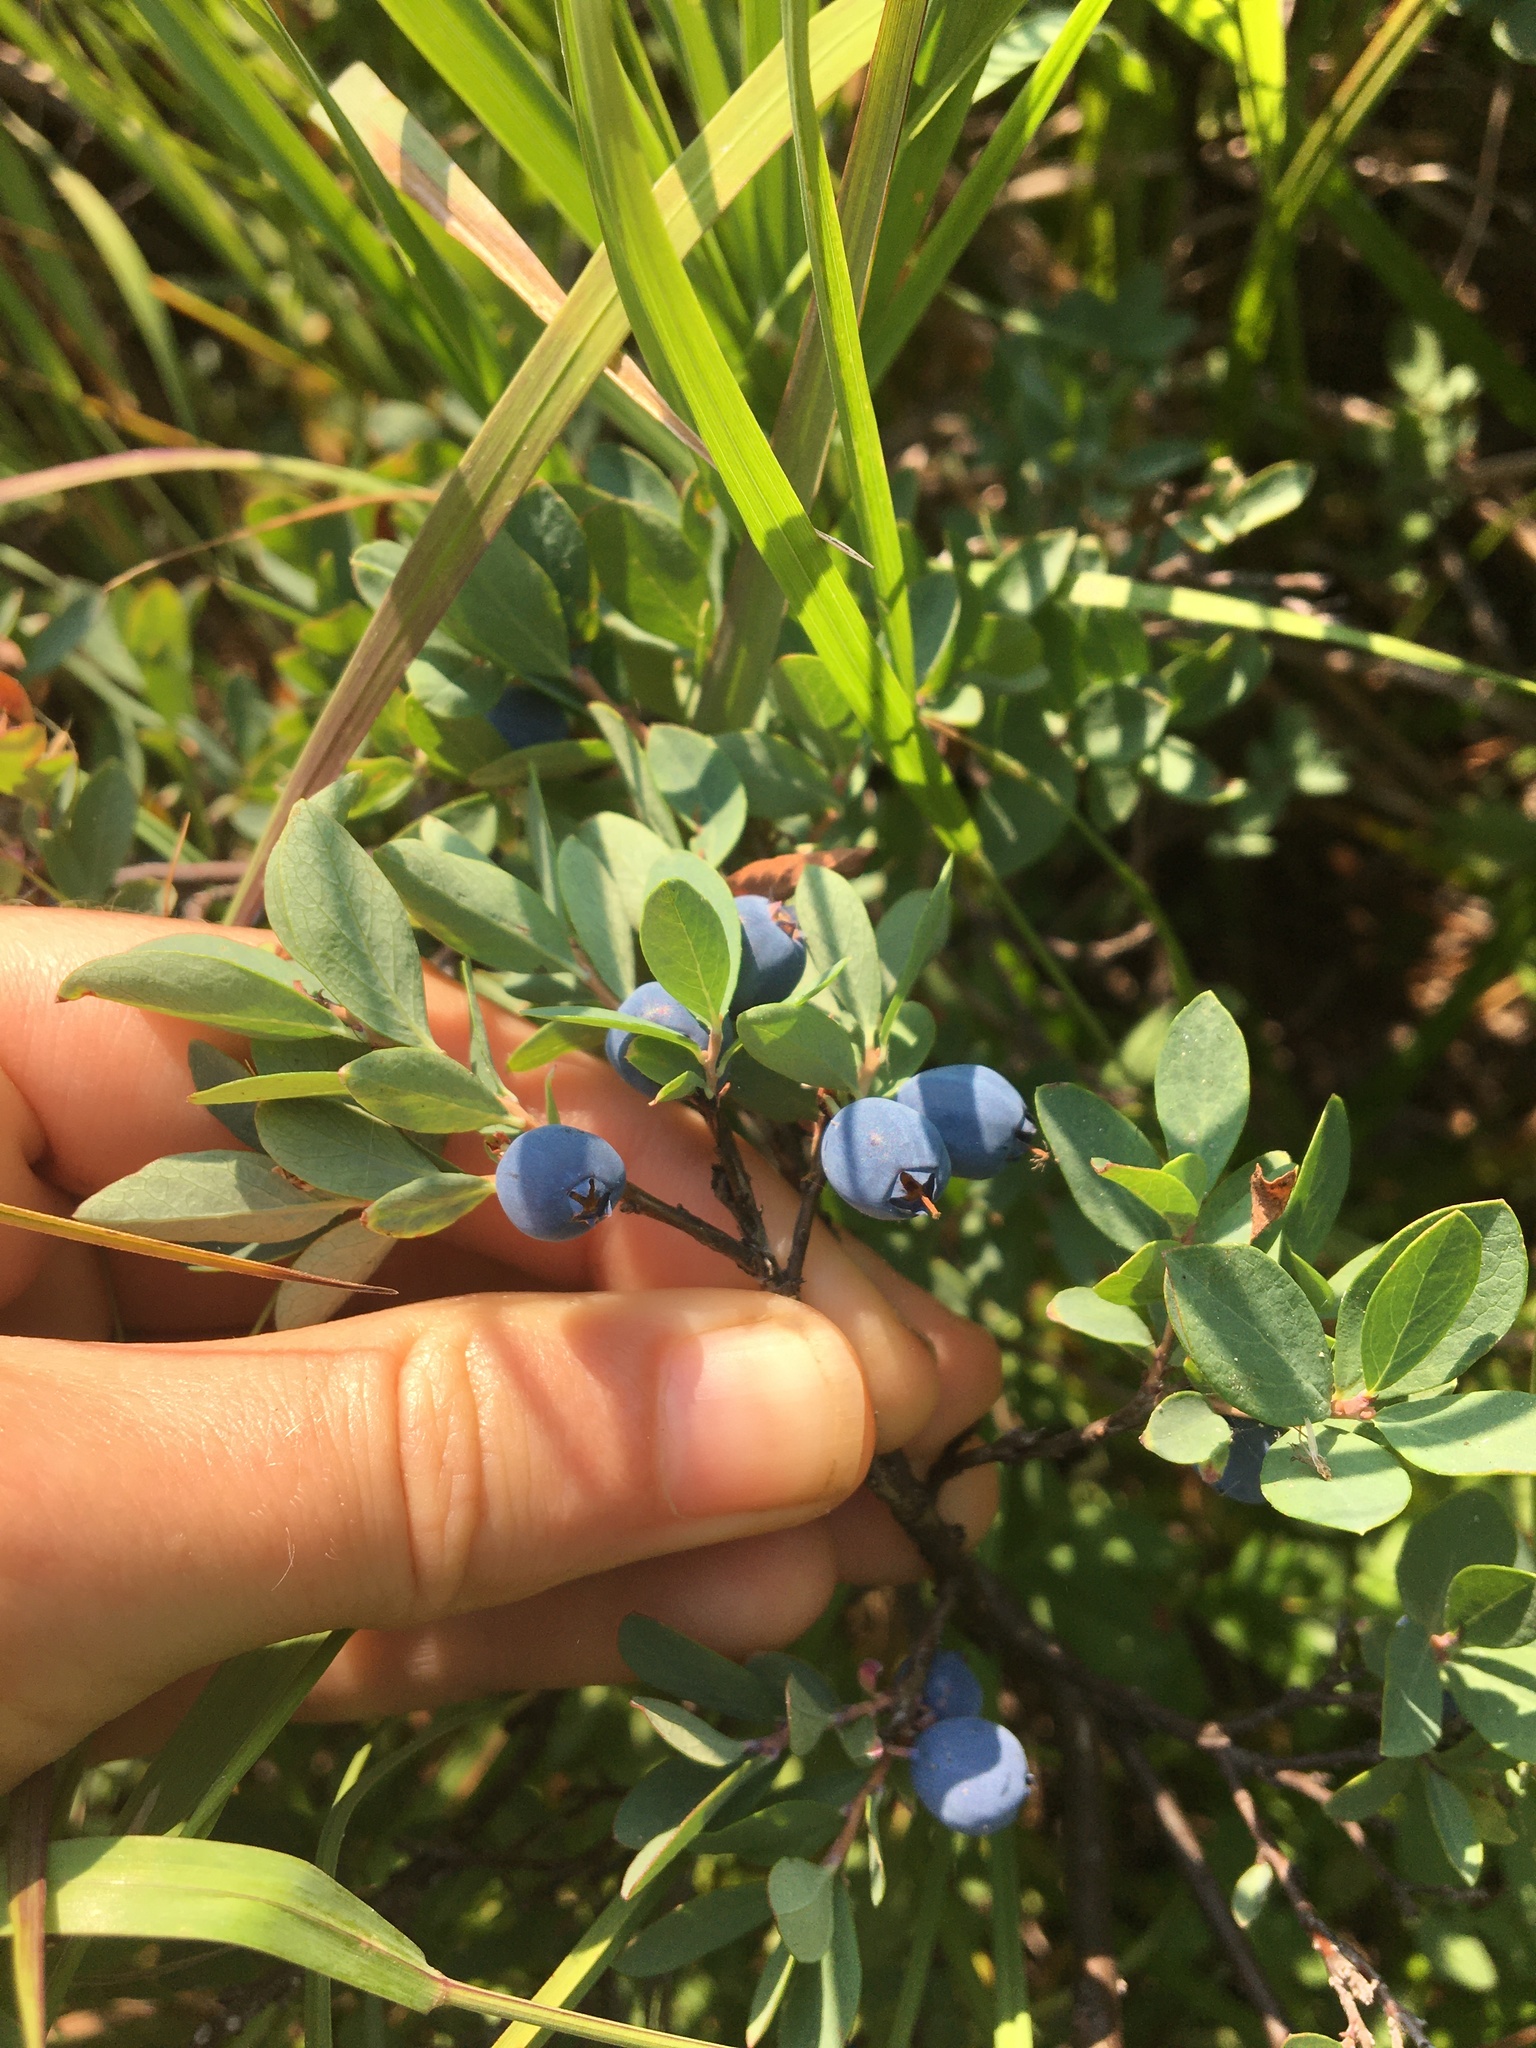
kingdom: Plantae
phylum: Tracheophyta
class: Magnoliopsida
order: Ericales
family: Ericaceae
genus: Vaccinium
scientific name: Vaccinium uliginosum
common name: Bog bilberry
